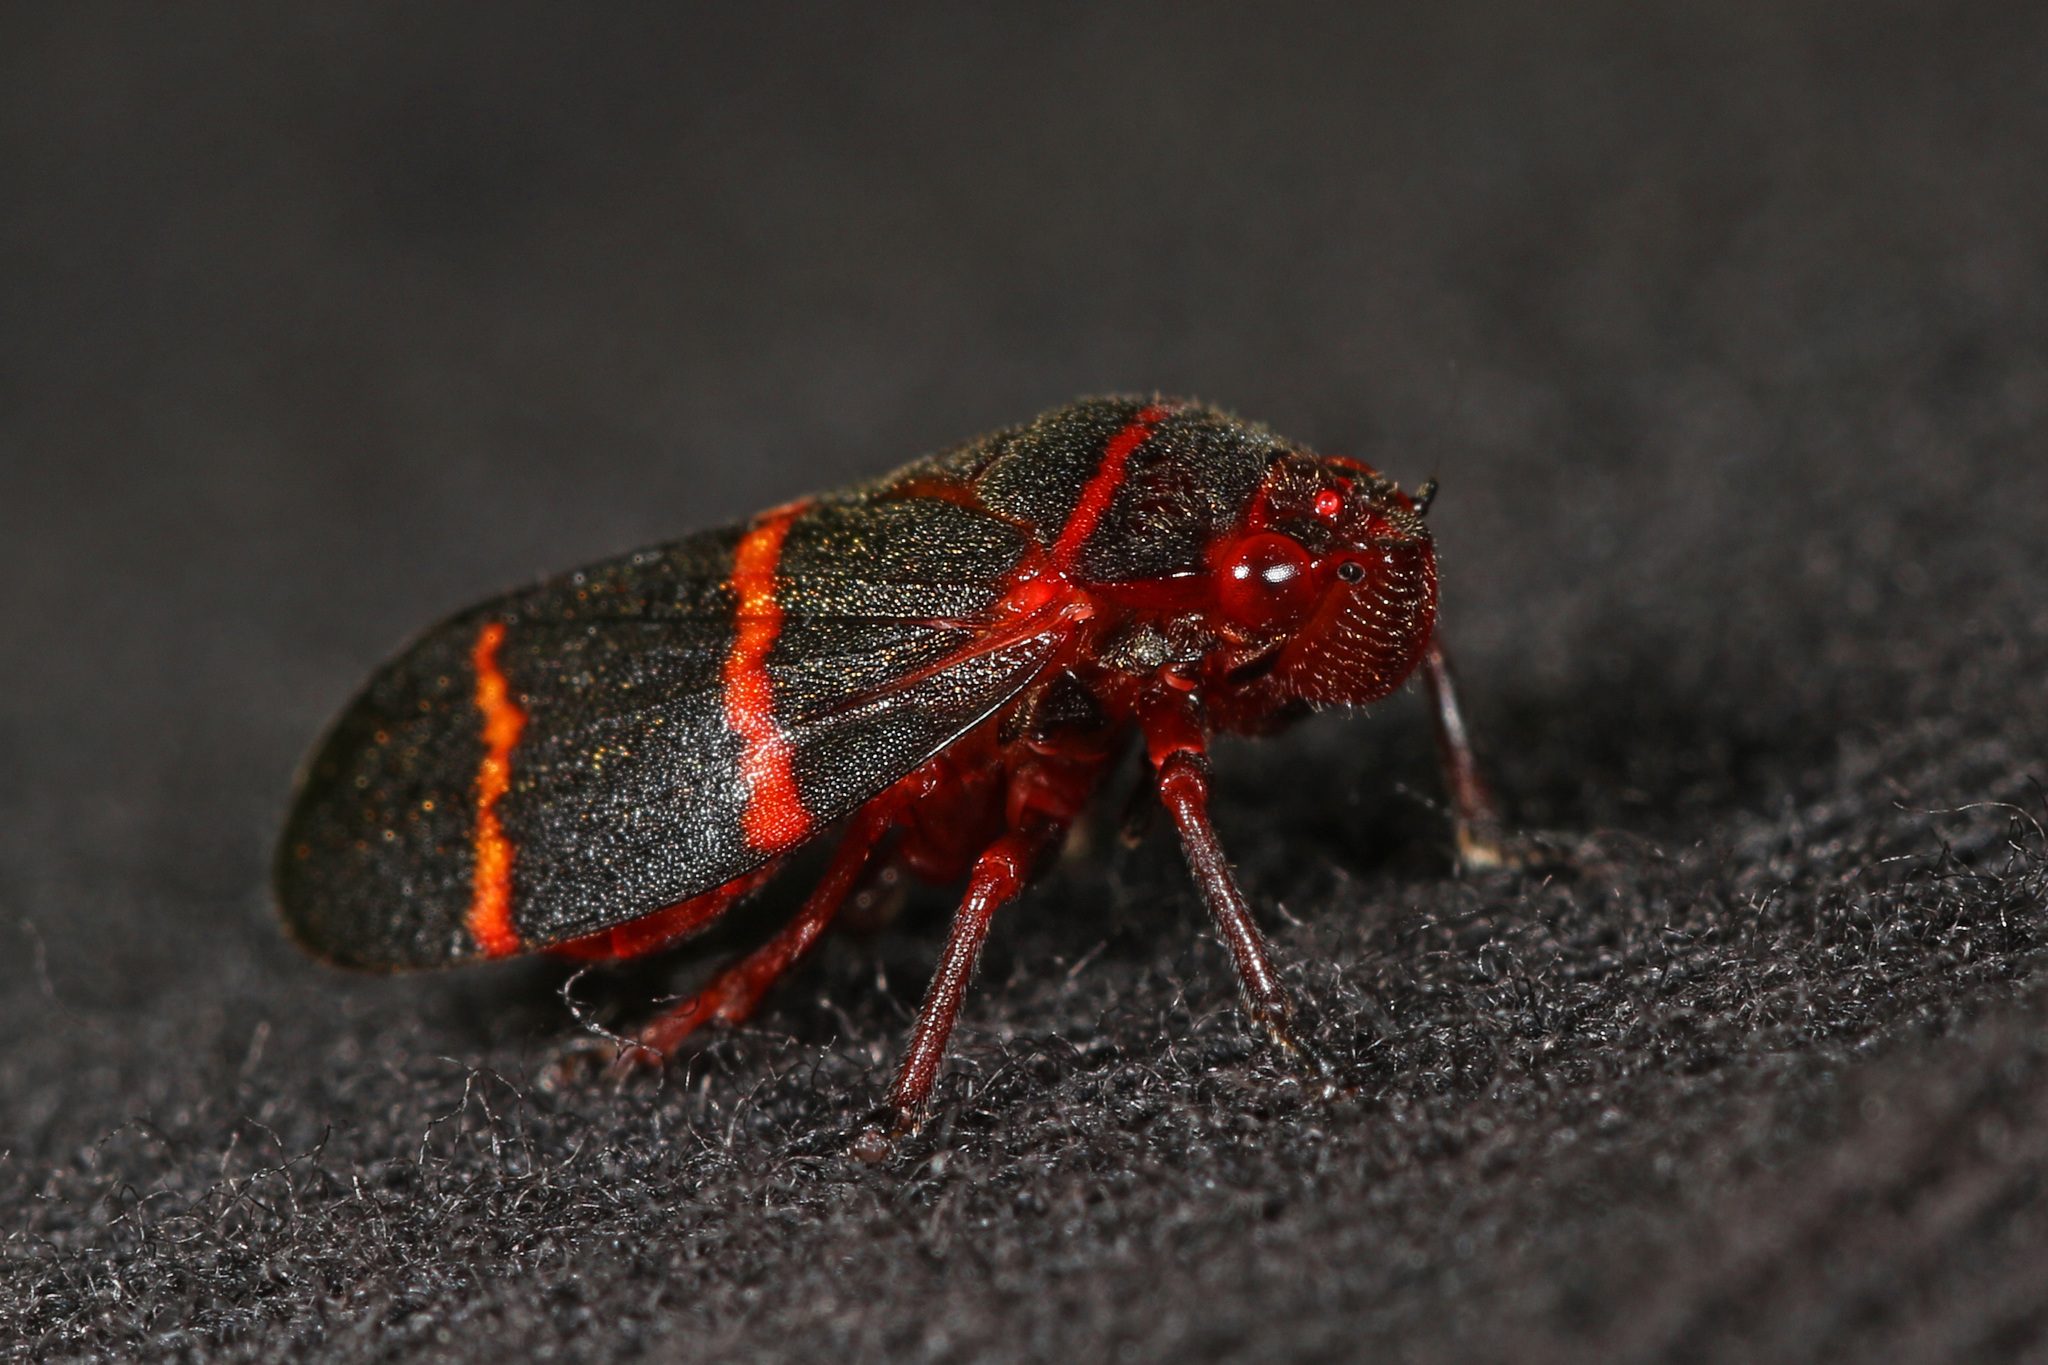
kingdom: Animalia
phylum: Arthropoda
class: Insecta
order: Hemiptera
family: Cercopidae
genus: Prosapia
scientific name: Prosapia bicincta
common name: Twolined spittlebug
